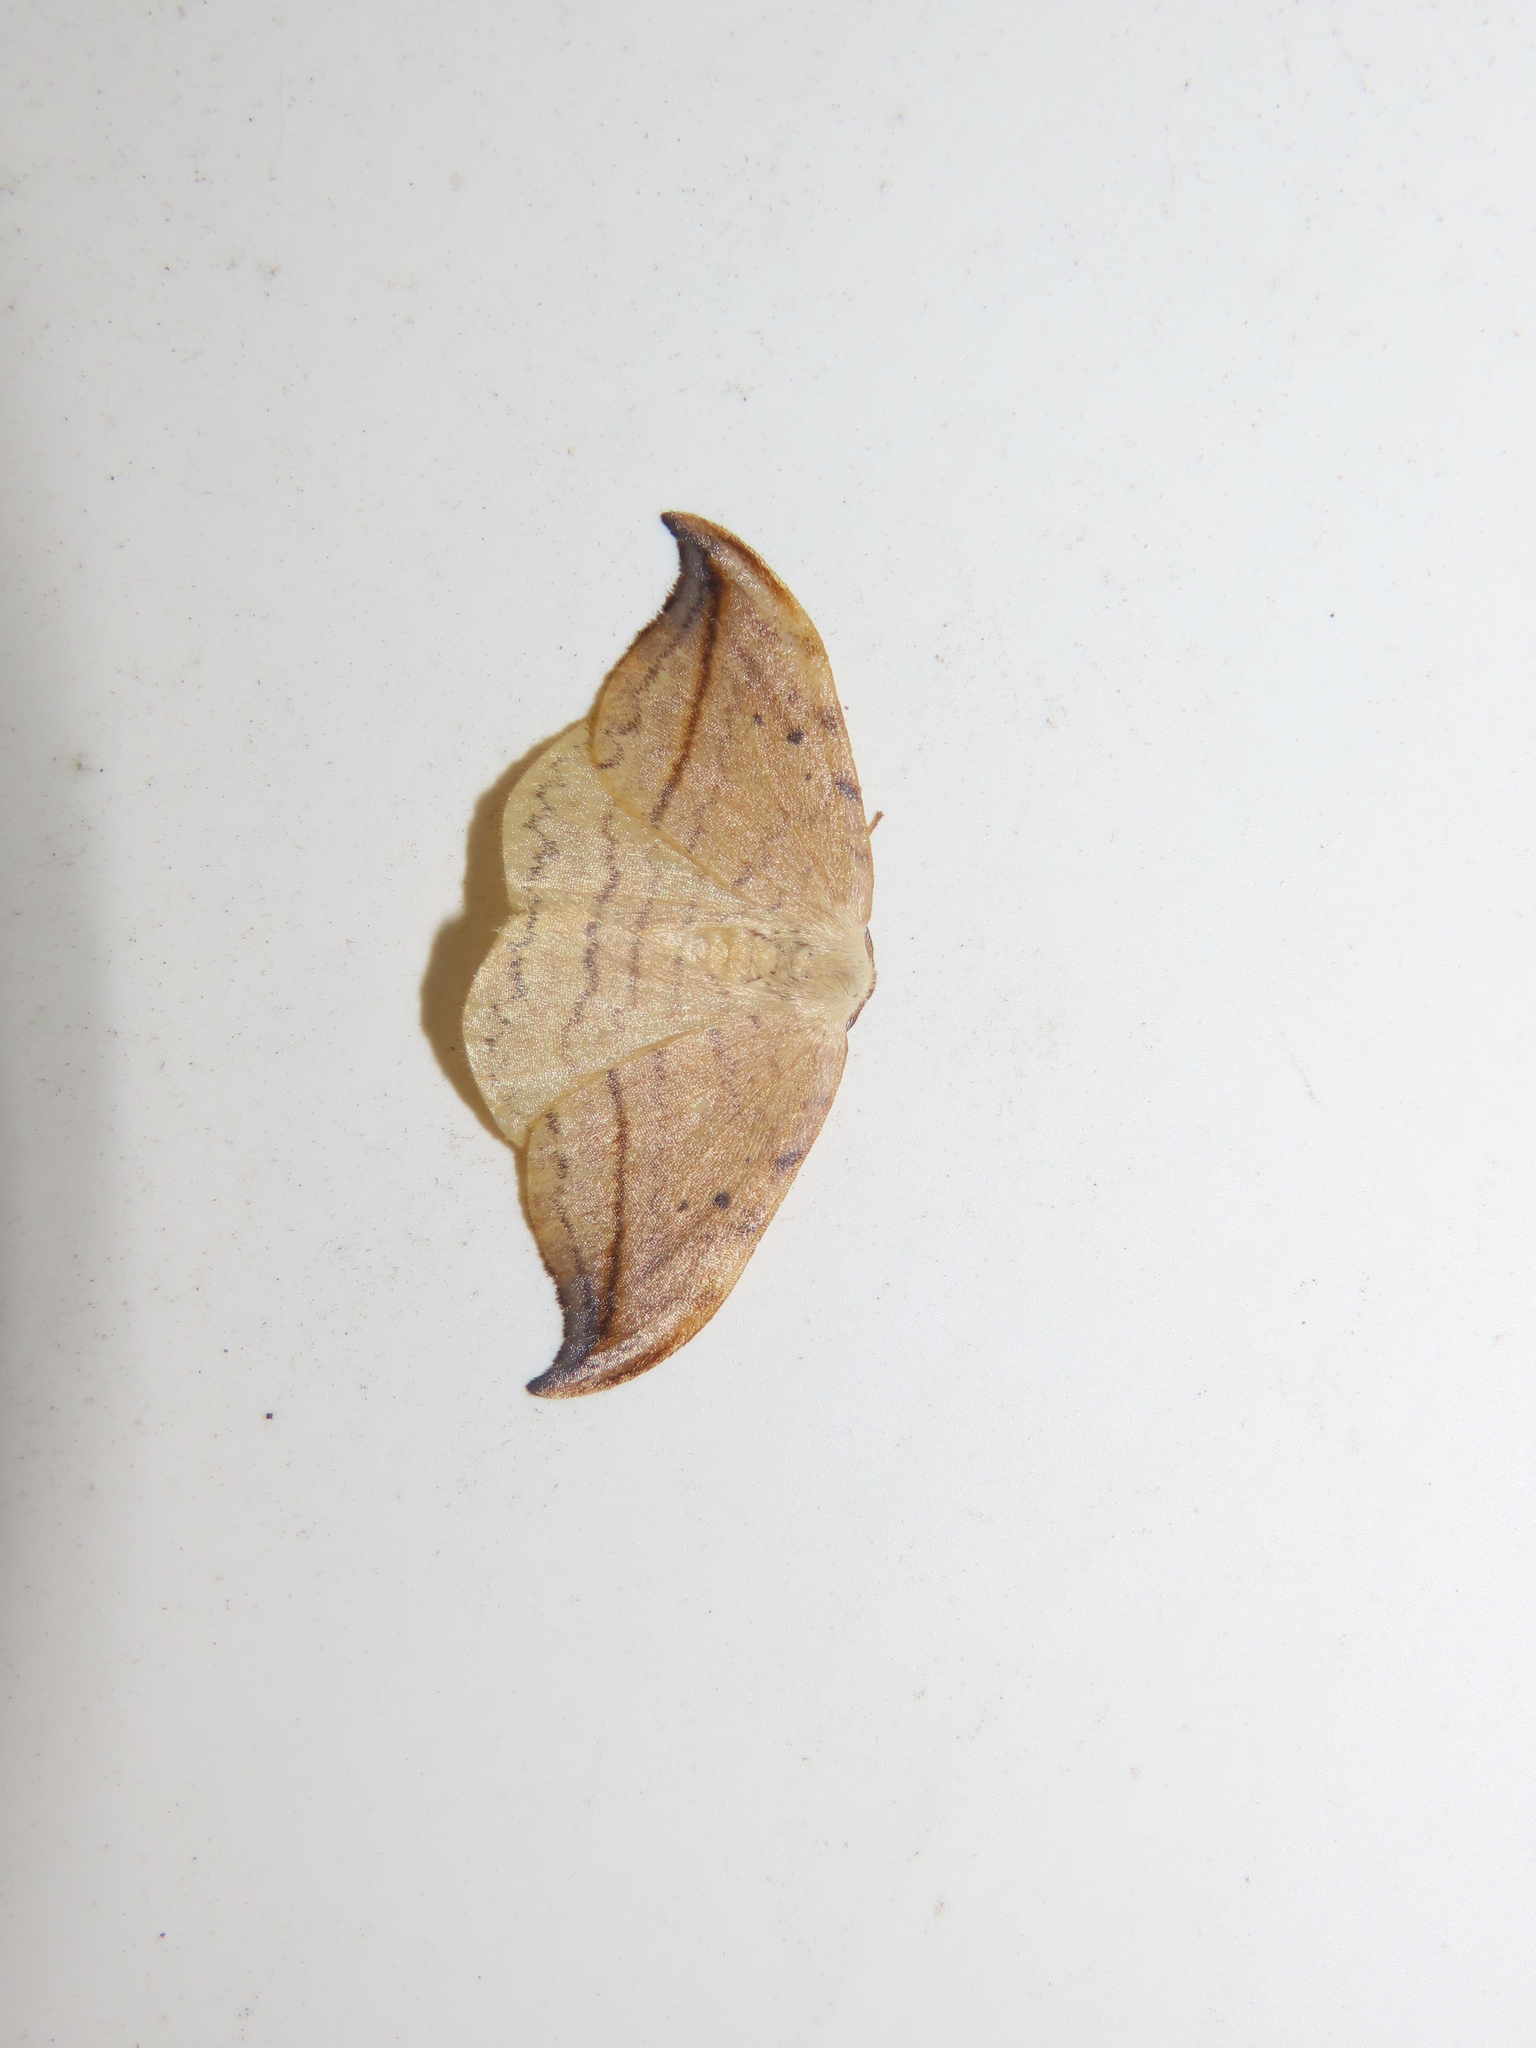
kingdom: Animalia
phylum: Arthropoda
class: Insecta
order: Lepidoptera
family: Drepanidae
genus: Drepana
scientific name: Drepana arcuata
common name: Arched hooktip moth
